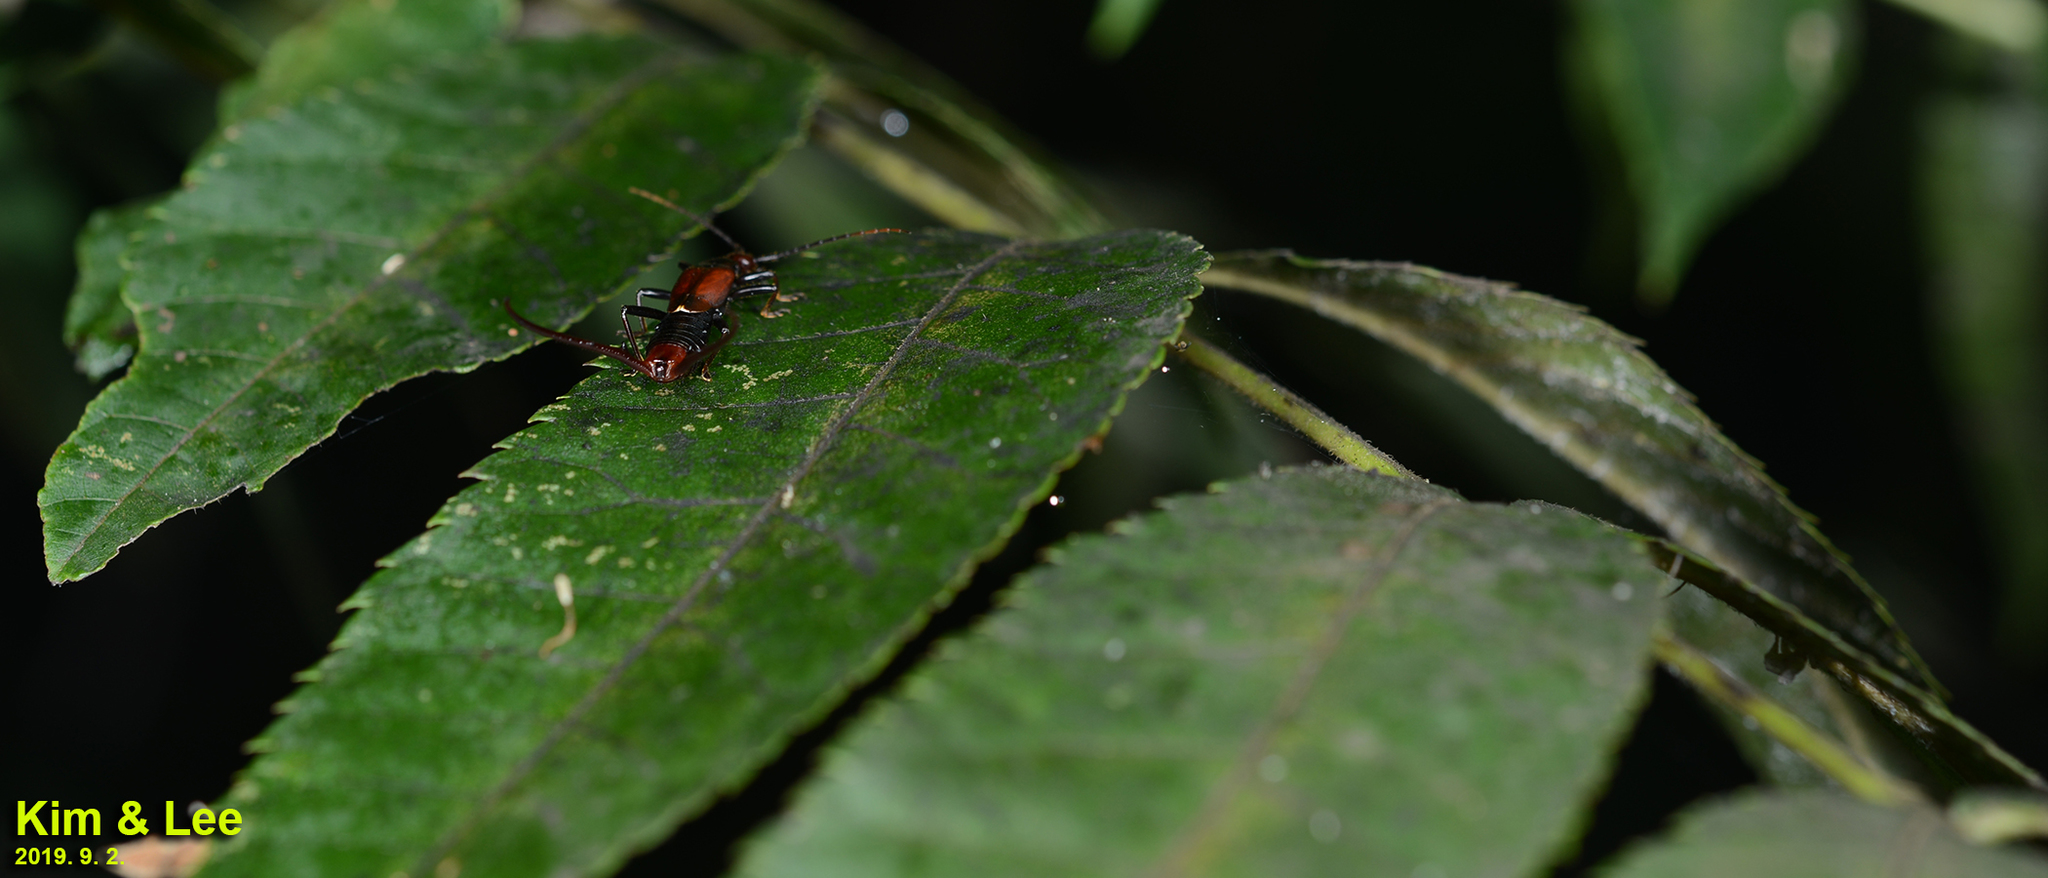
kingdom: Animalia
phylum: Arthropoda
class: Insecta
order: Dermaptera
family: Forficulidae
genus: Timomenus
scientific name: Timomenus komarovi
